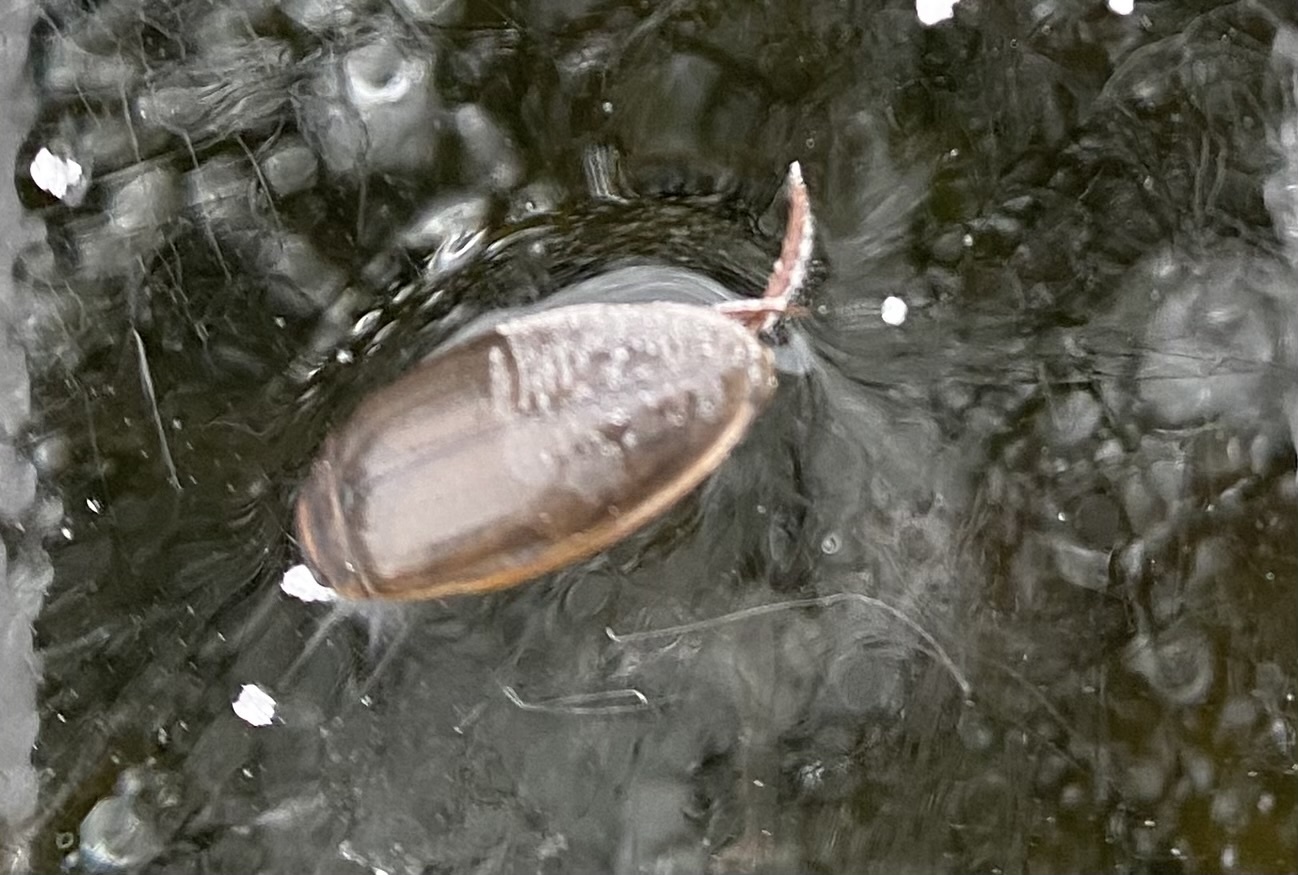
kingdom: Animalia
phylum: Arthropoda
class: Insecta
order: Coleoptera
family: Dytiscidae
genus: Dytiscus
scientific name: Dytiscus
